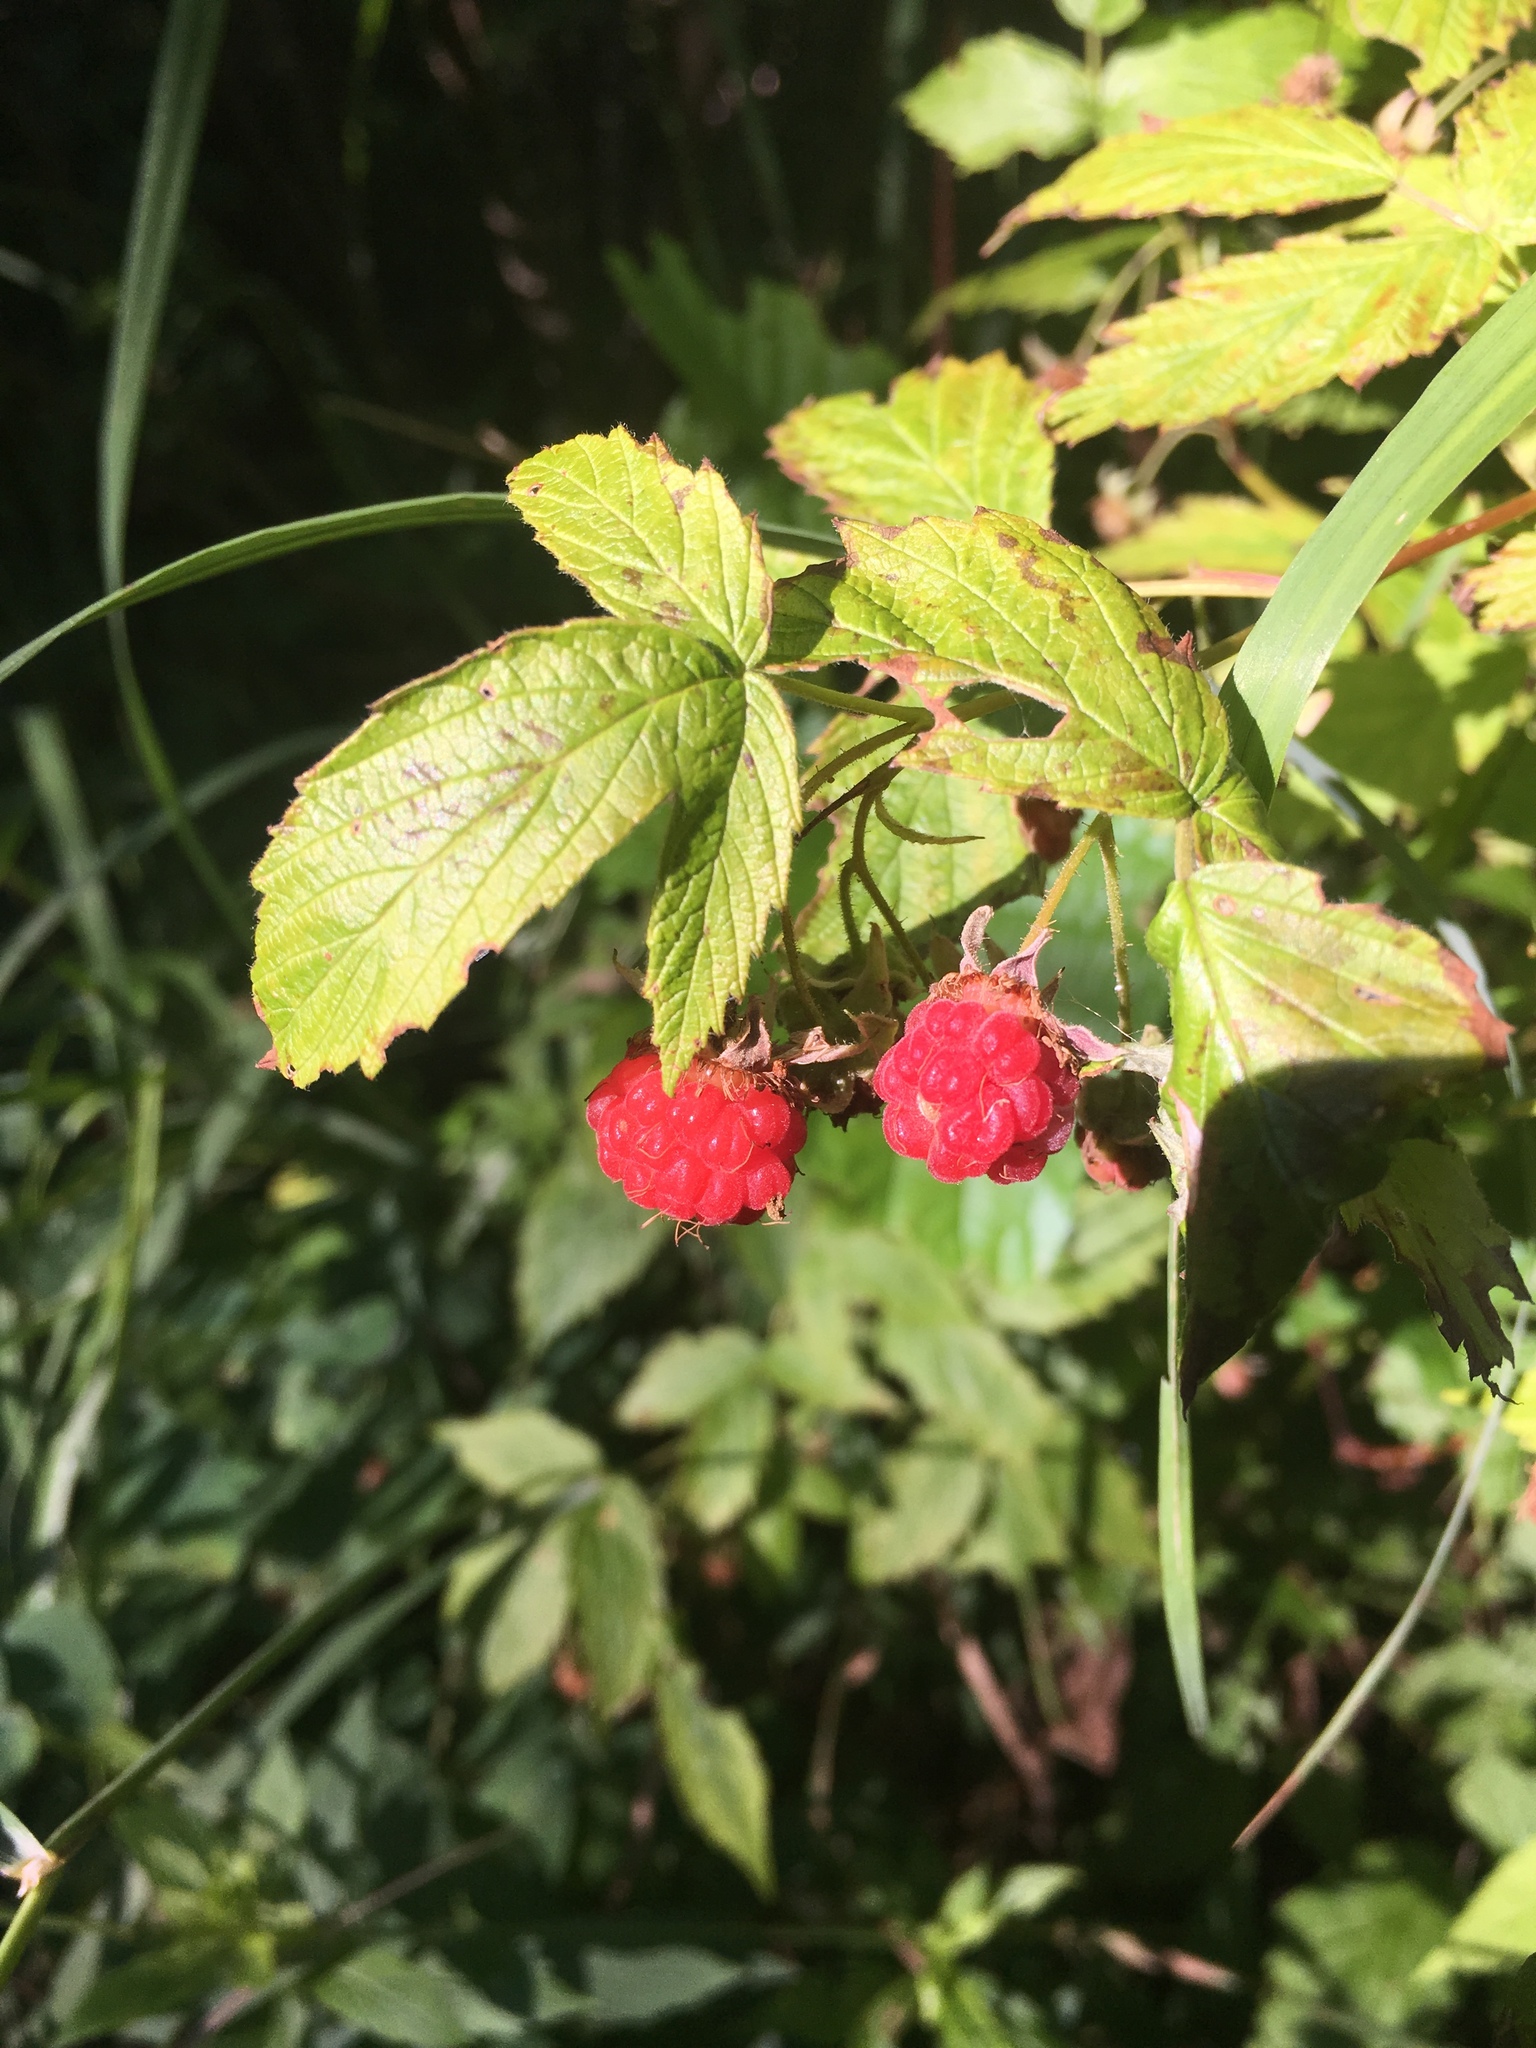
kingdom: Plantae
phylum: Tracheophyta
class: Magnoliopsida
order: Rosales
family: Rosaceae
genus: Rubus
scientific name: Rubus idaeus
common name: Raspberry
